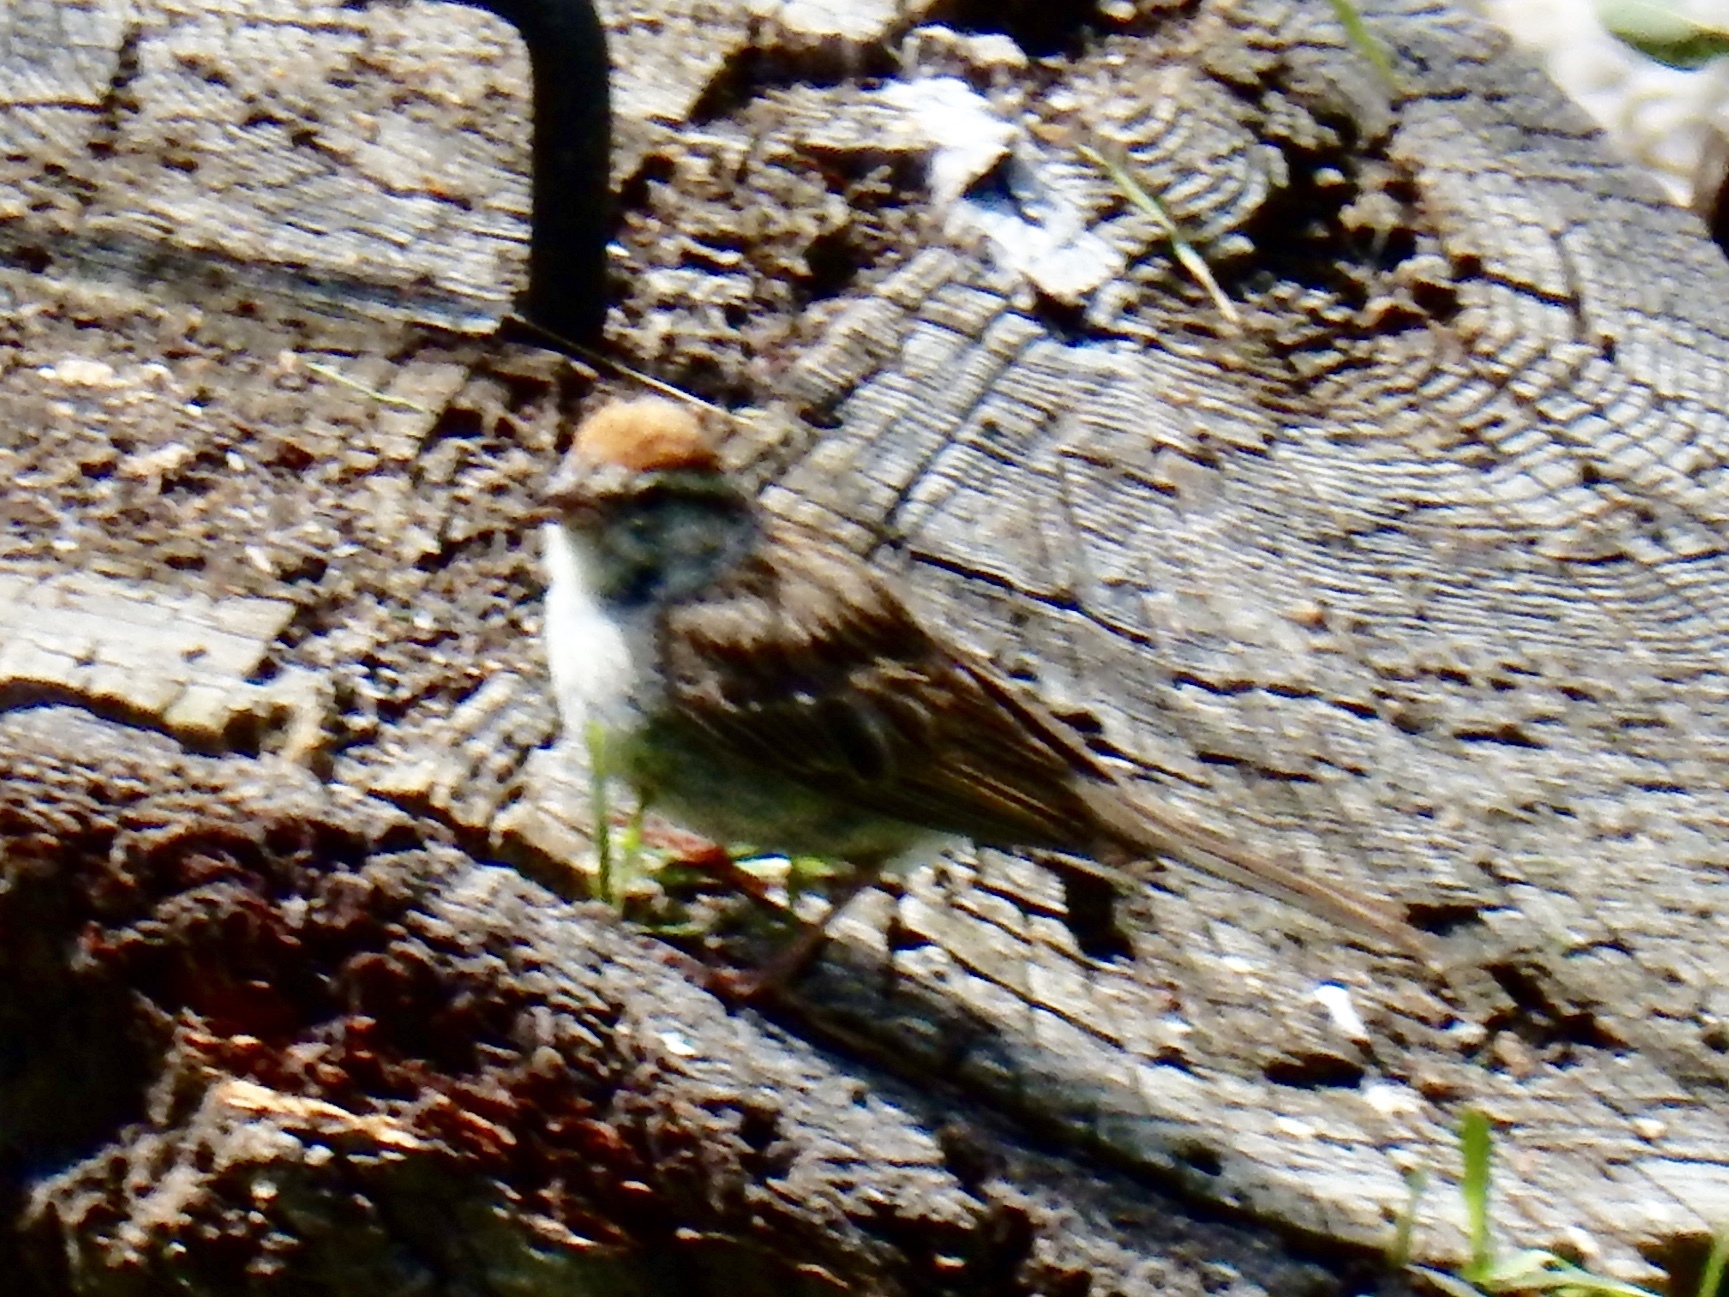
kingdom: Animalia
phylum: Chordata
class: Aves
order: Passeriformes
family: Passerellidae
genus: Spizella
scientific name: Spizella passerina
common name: Chipping sparrow
